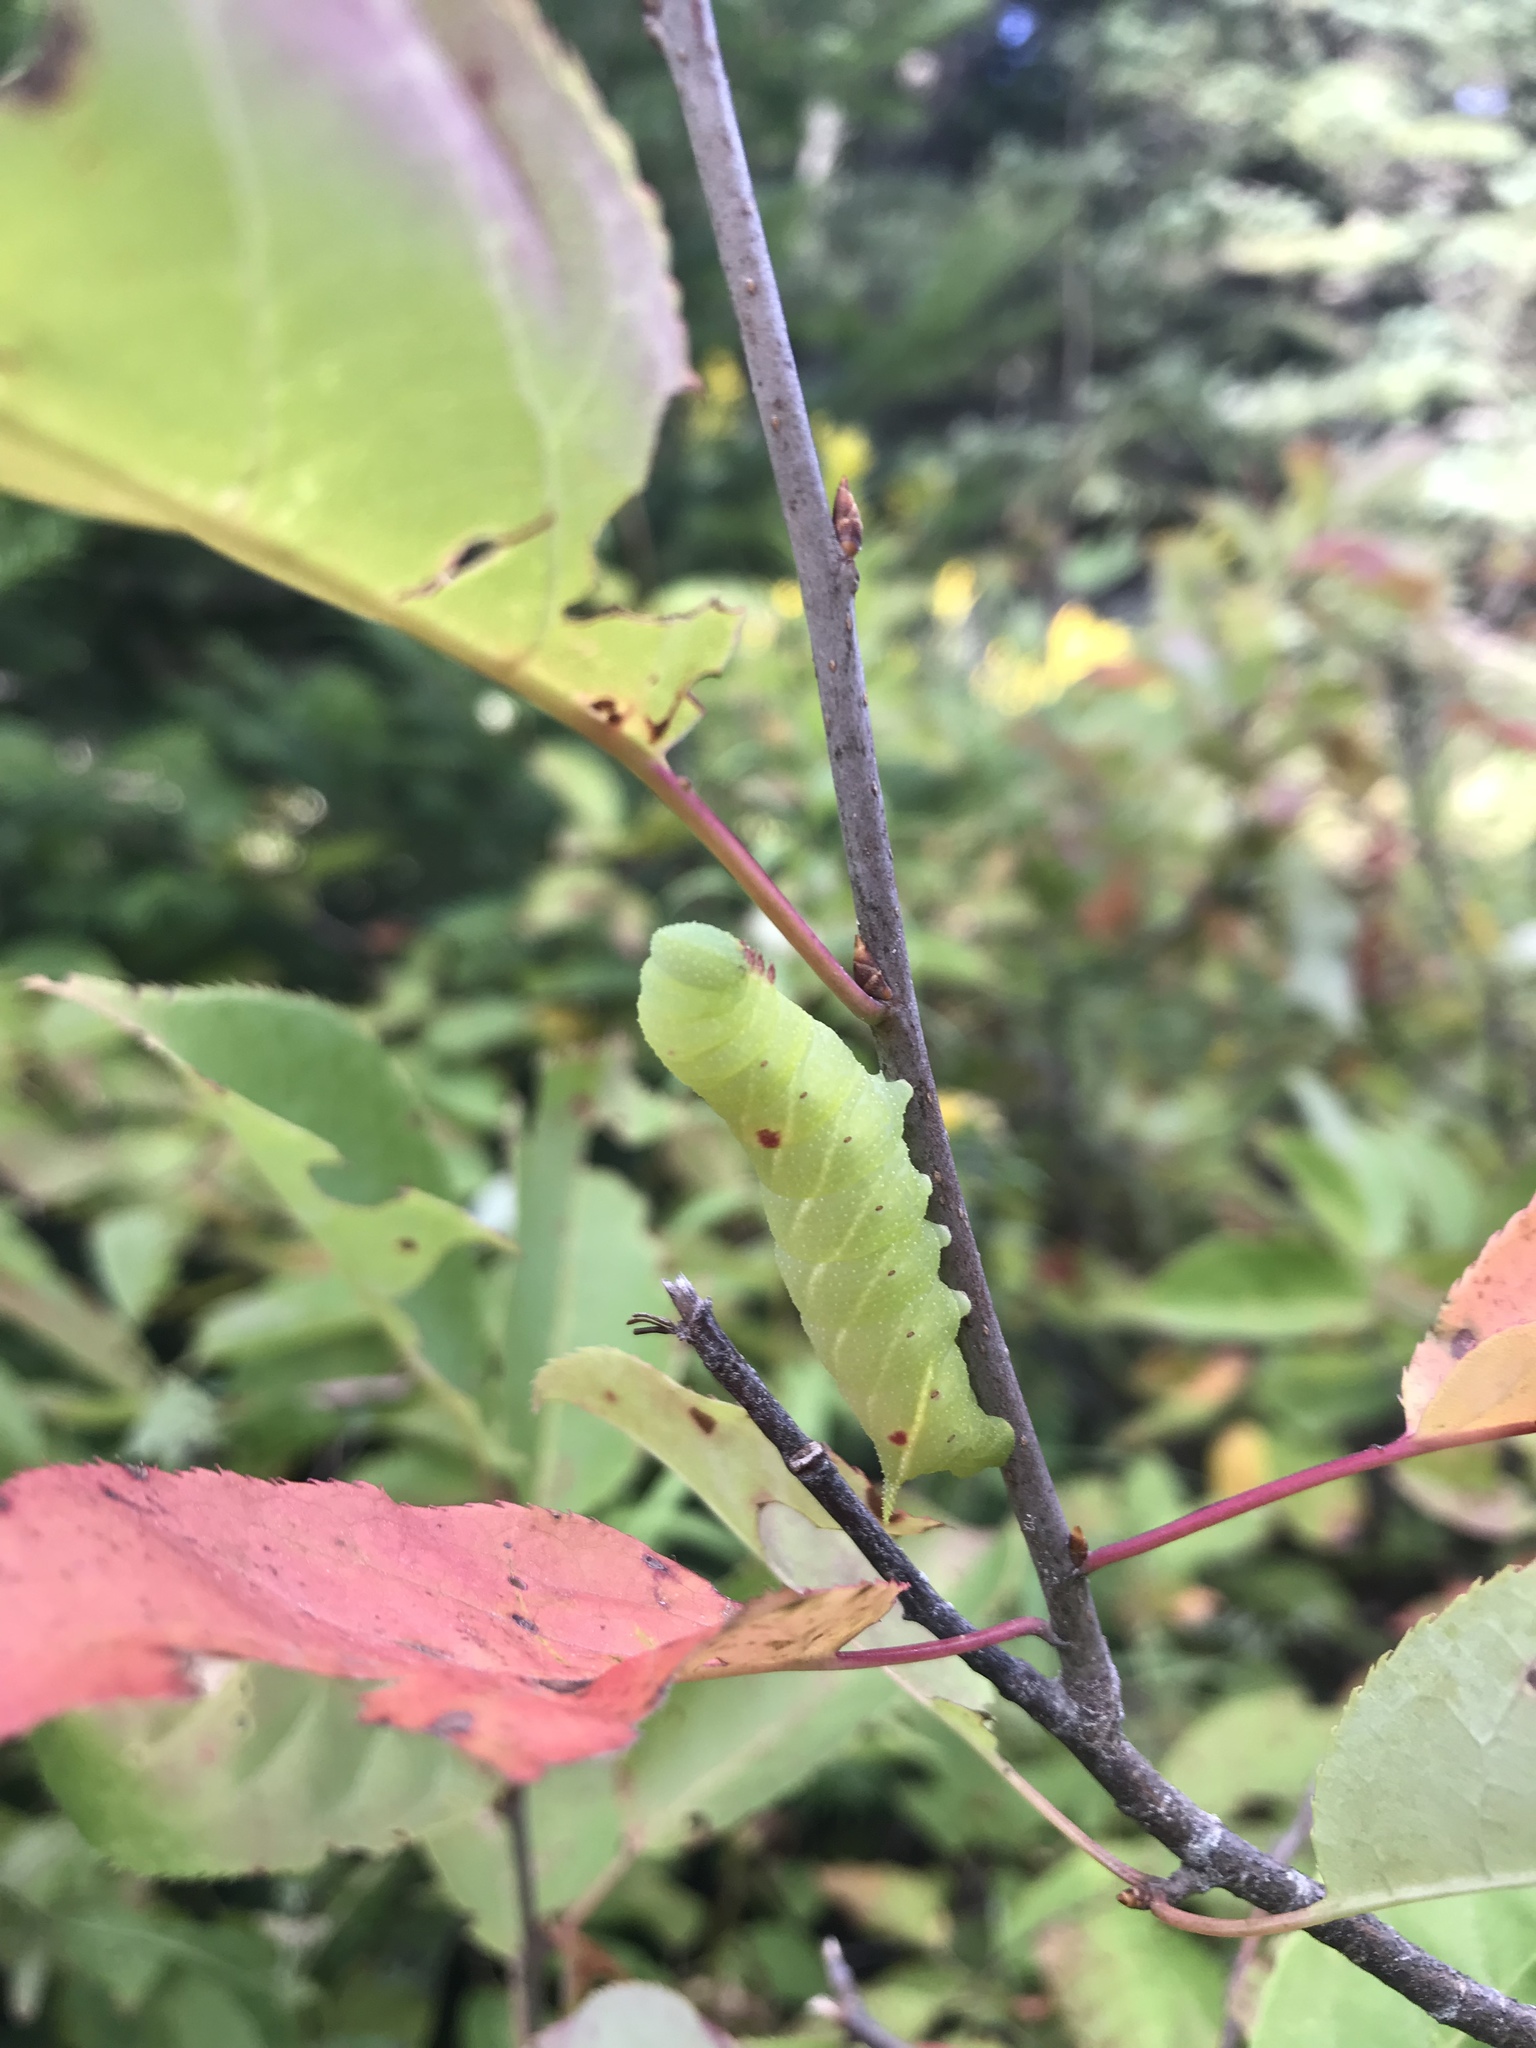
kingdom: Animalia
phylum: Arthropoda
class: Insecta
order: Lepidoptera
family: Sphingidae
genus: Paonias
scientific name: Paonias myops
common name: Small-eyed sphinx
